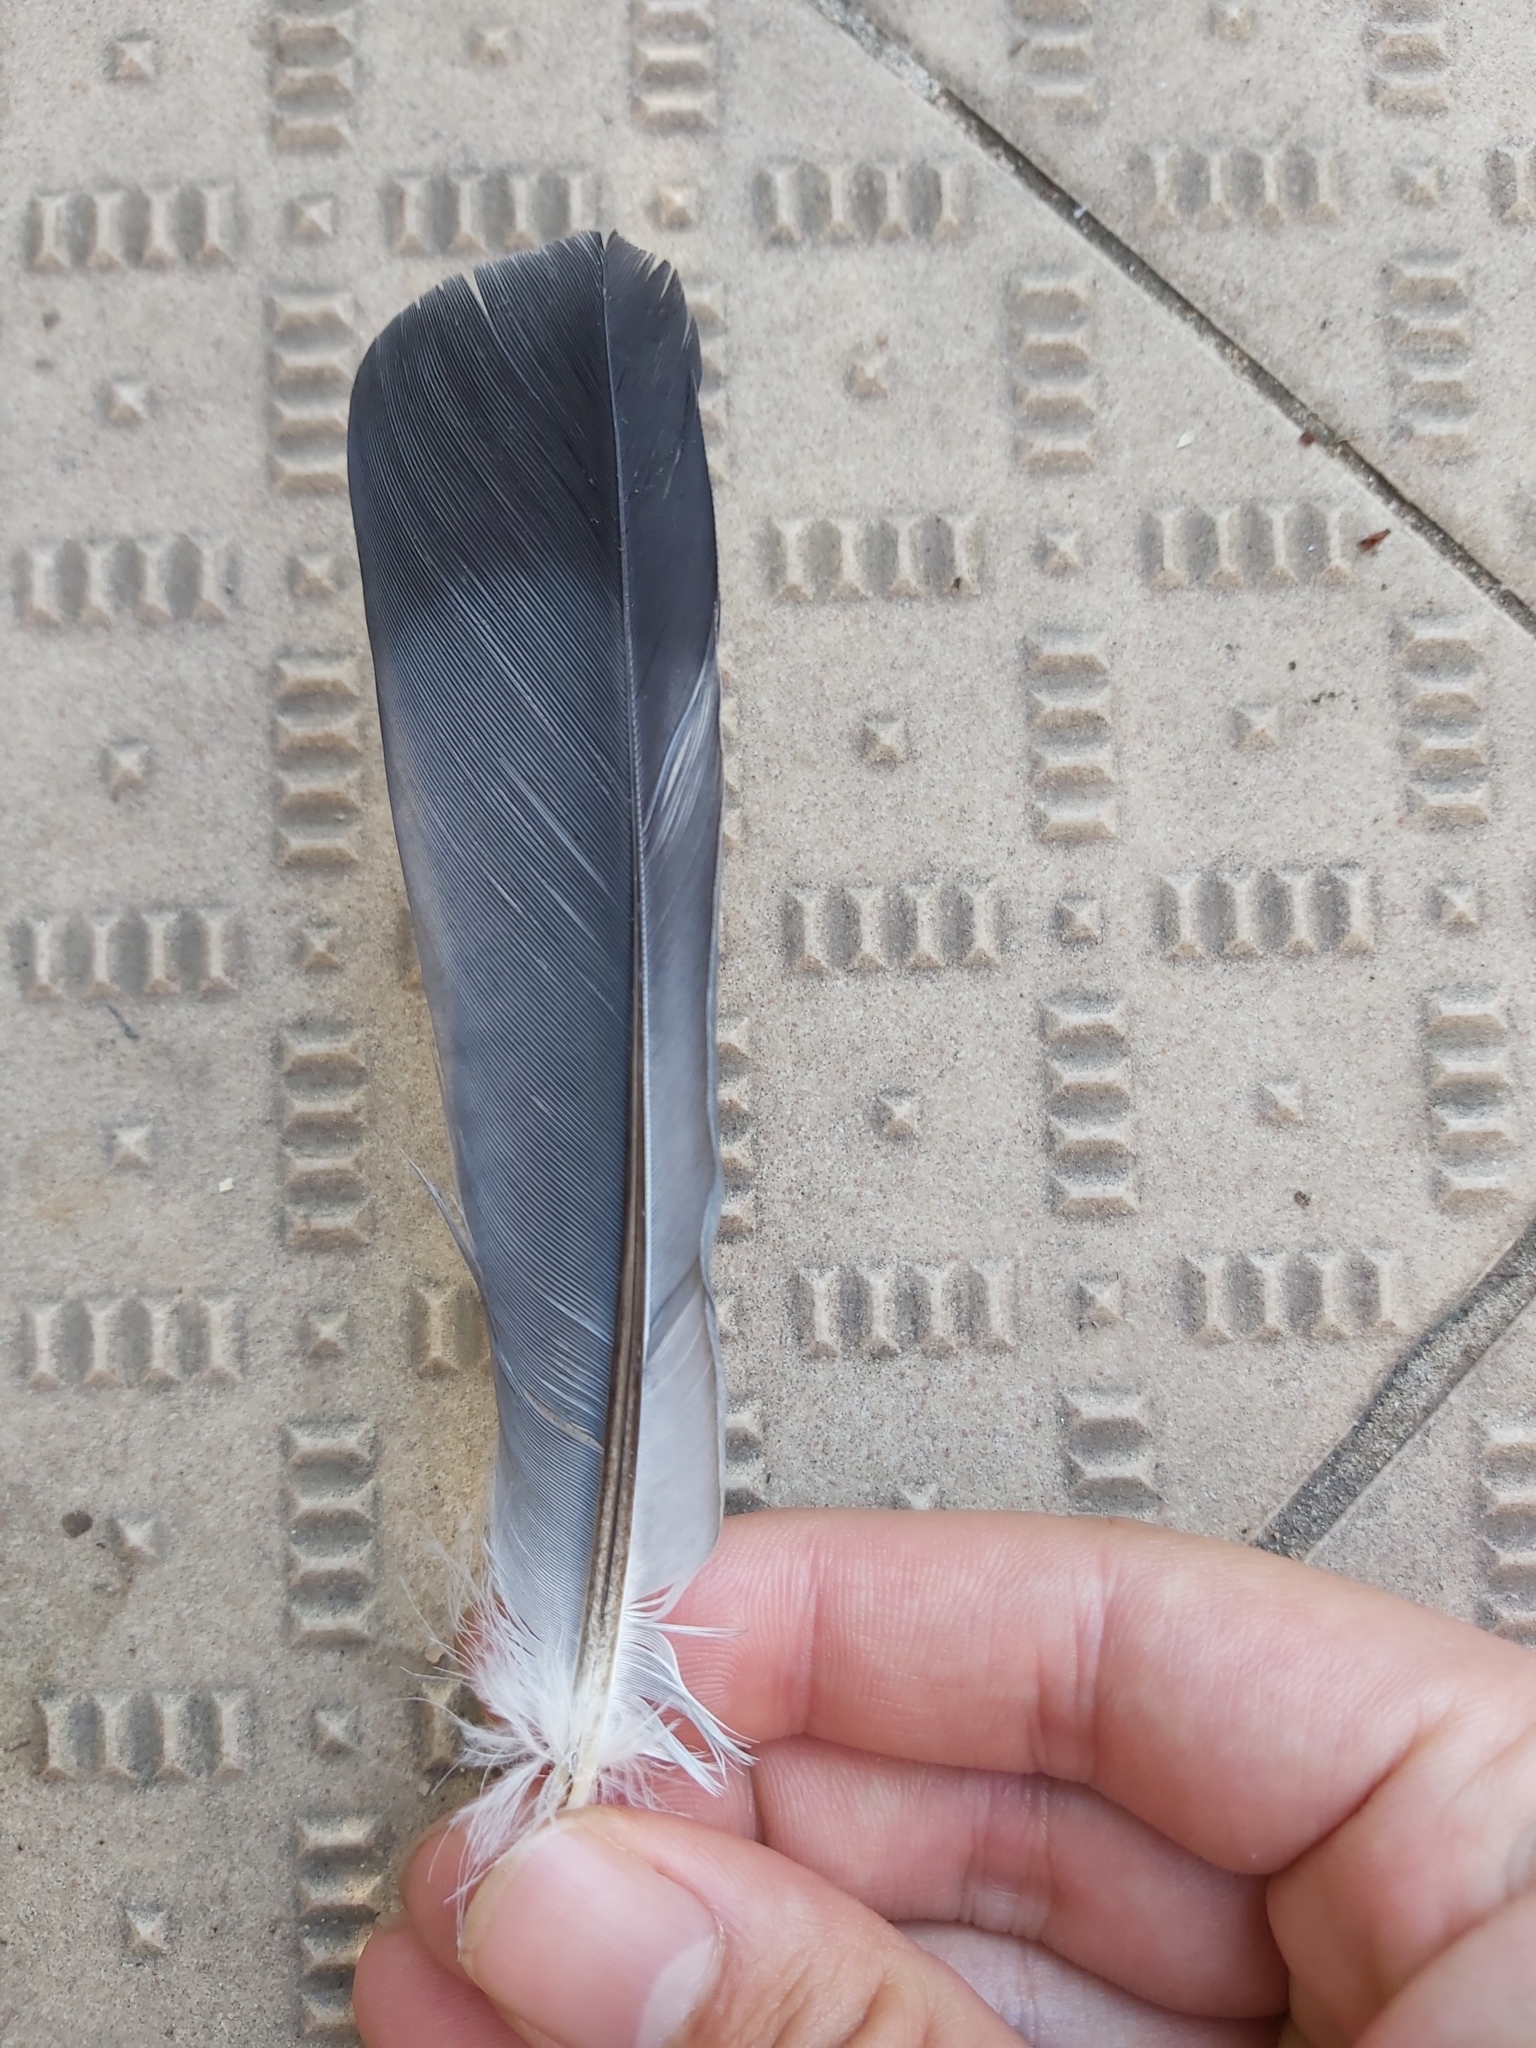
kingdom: Animalia
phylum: Chordata
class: Aves
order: Columbiformes
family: Columbidae
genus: Columba
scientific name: Columba livia
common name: Rock pigeon
